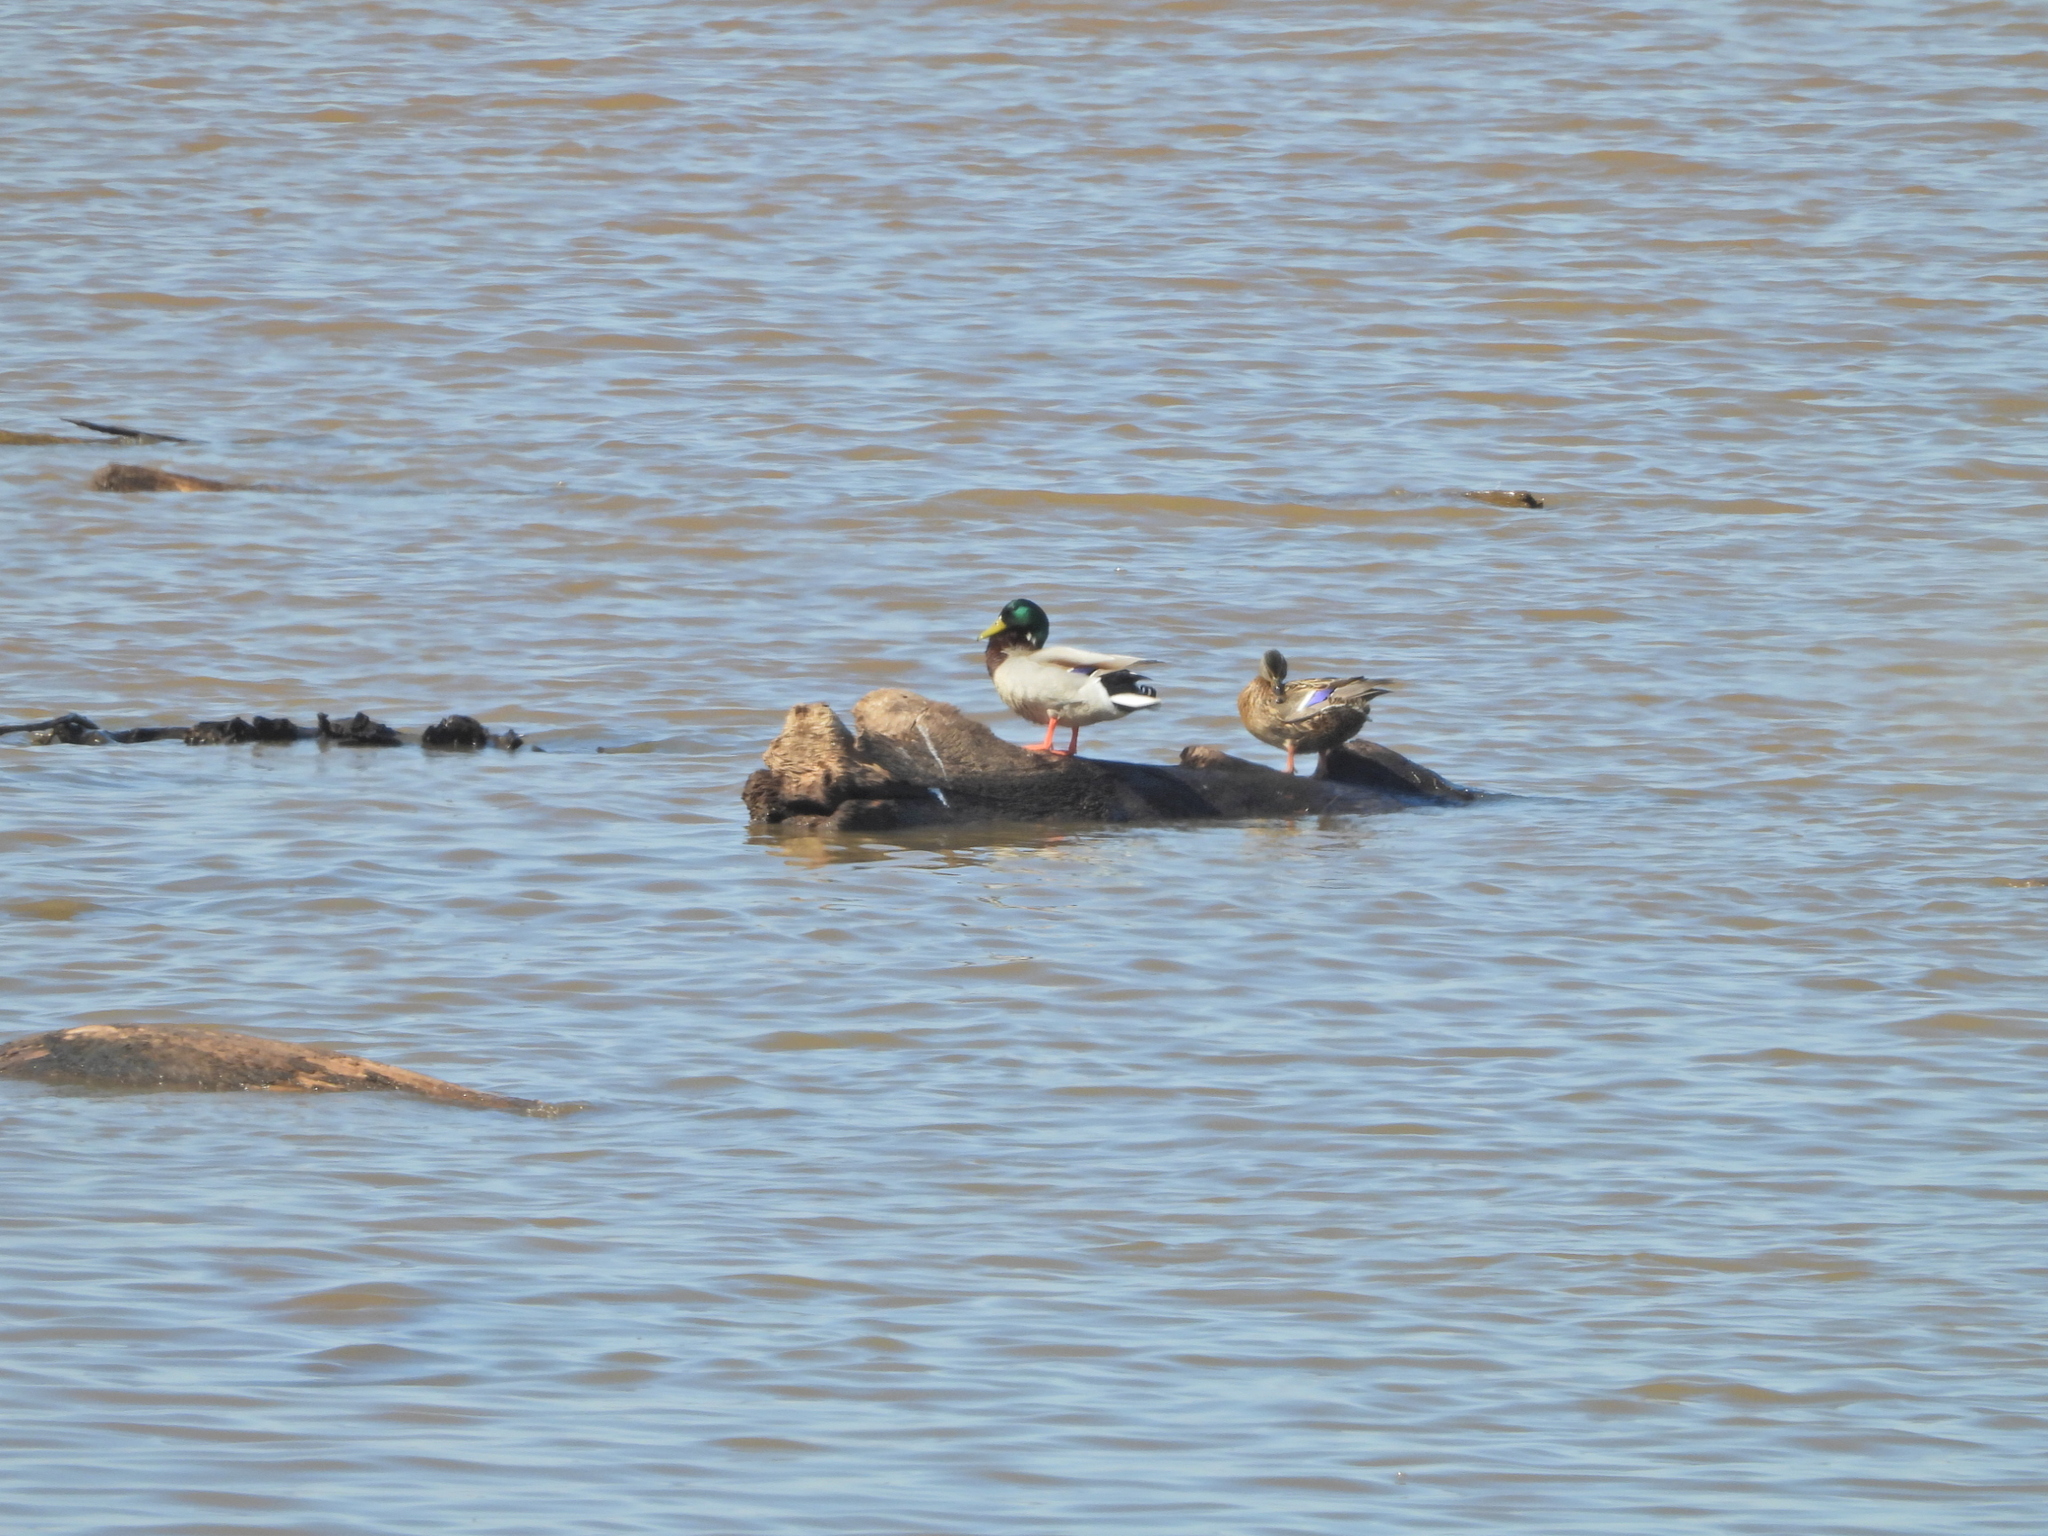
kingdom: Animalia
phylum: Chordata
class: Aves
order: Anseriformes
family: Anatidae
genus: Anas
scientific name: Anas platyrhynchos
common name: Mallard
